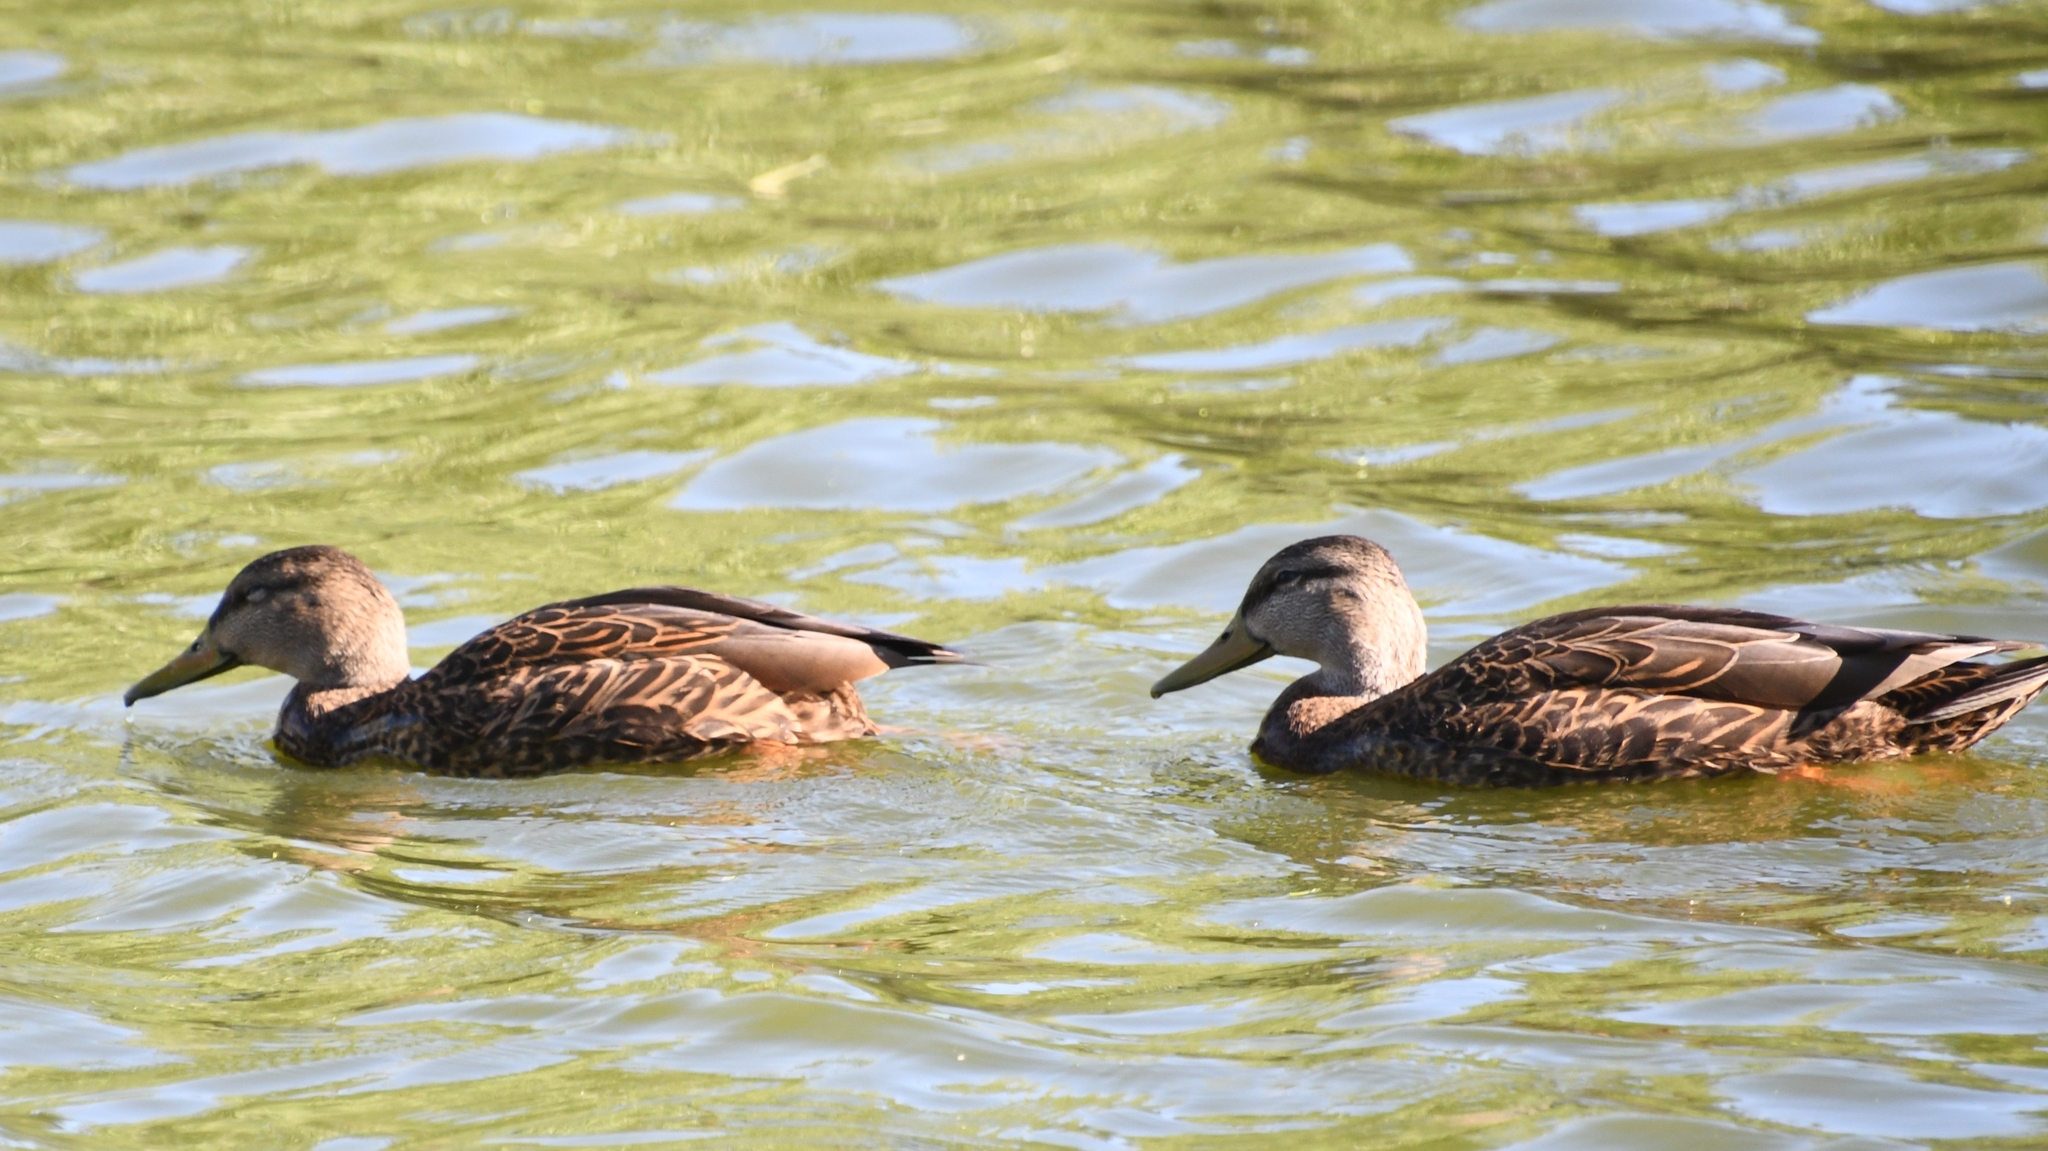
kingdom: Animalia
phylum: Chordata
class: Aves
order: Anseriformes
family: Anatidae
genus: Anas
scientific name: Anas diazi
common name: Mexican duck
